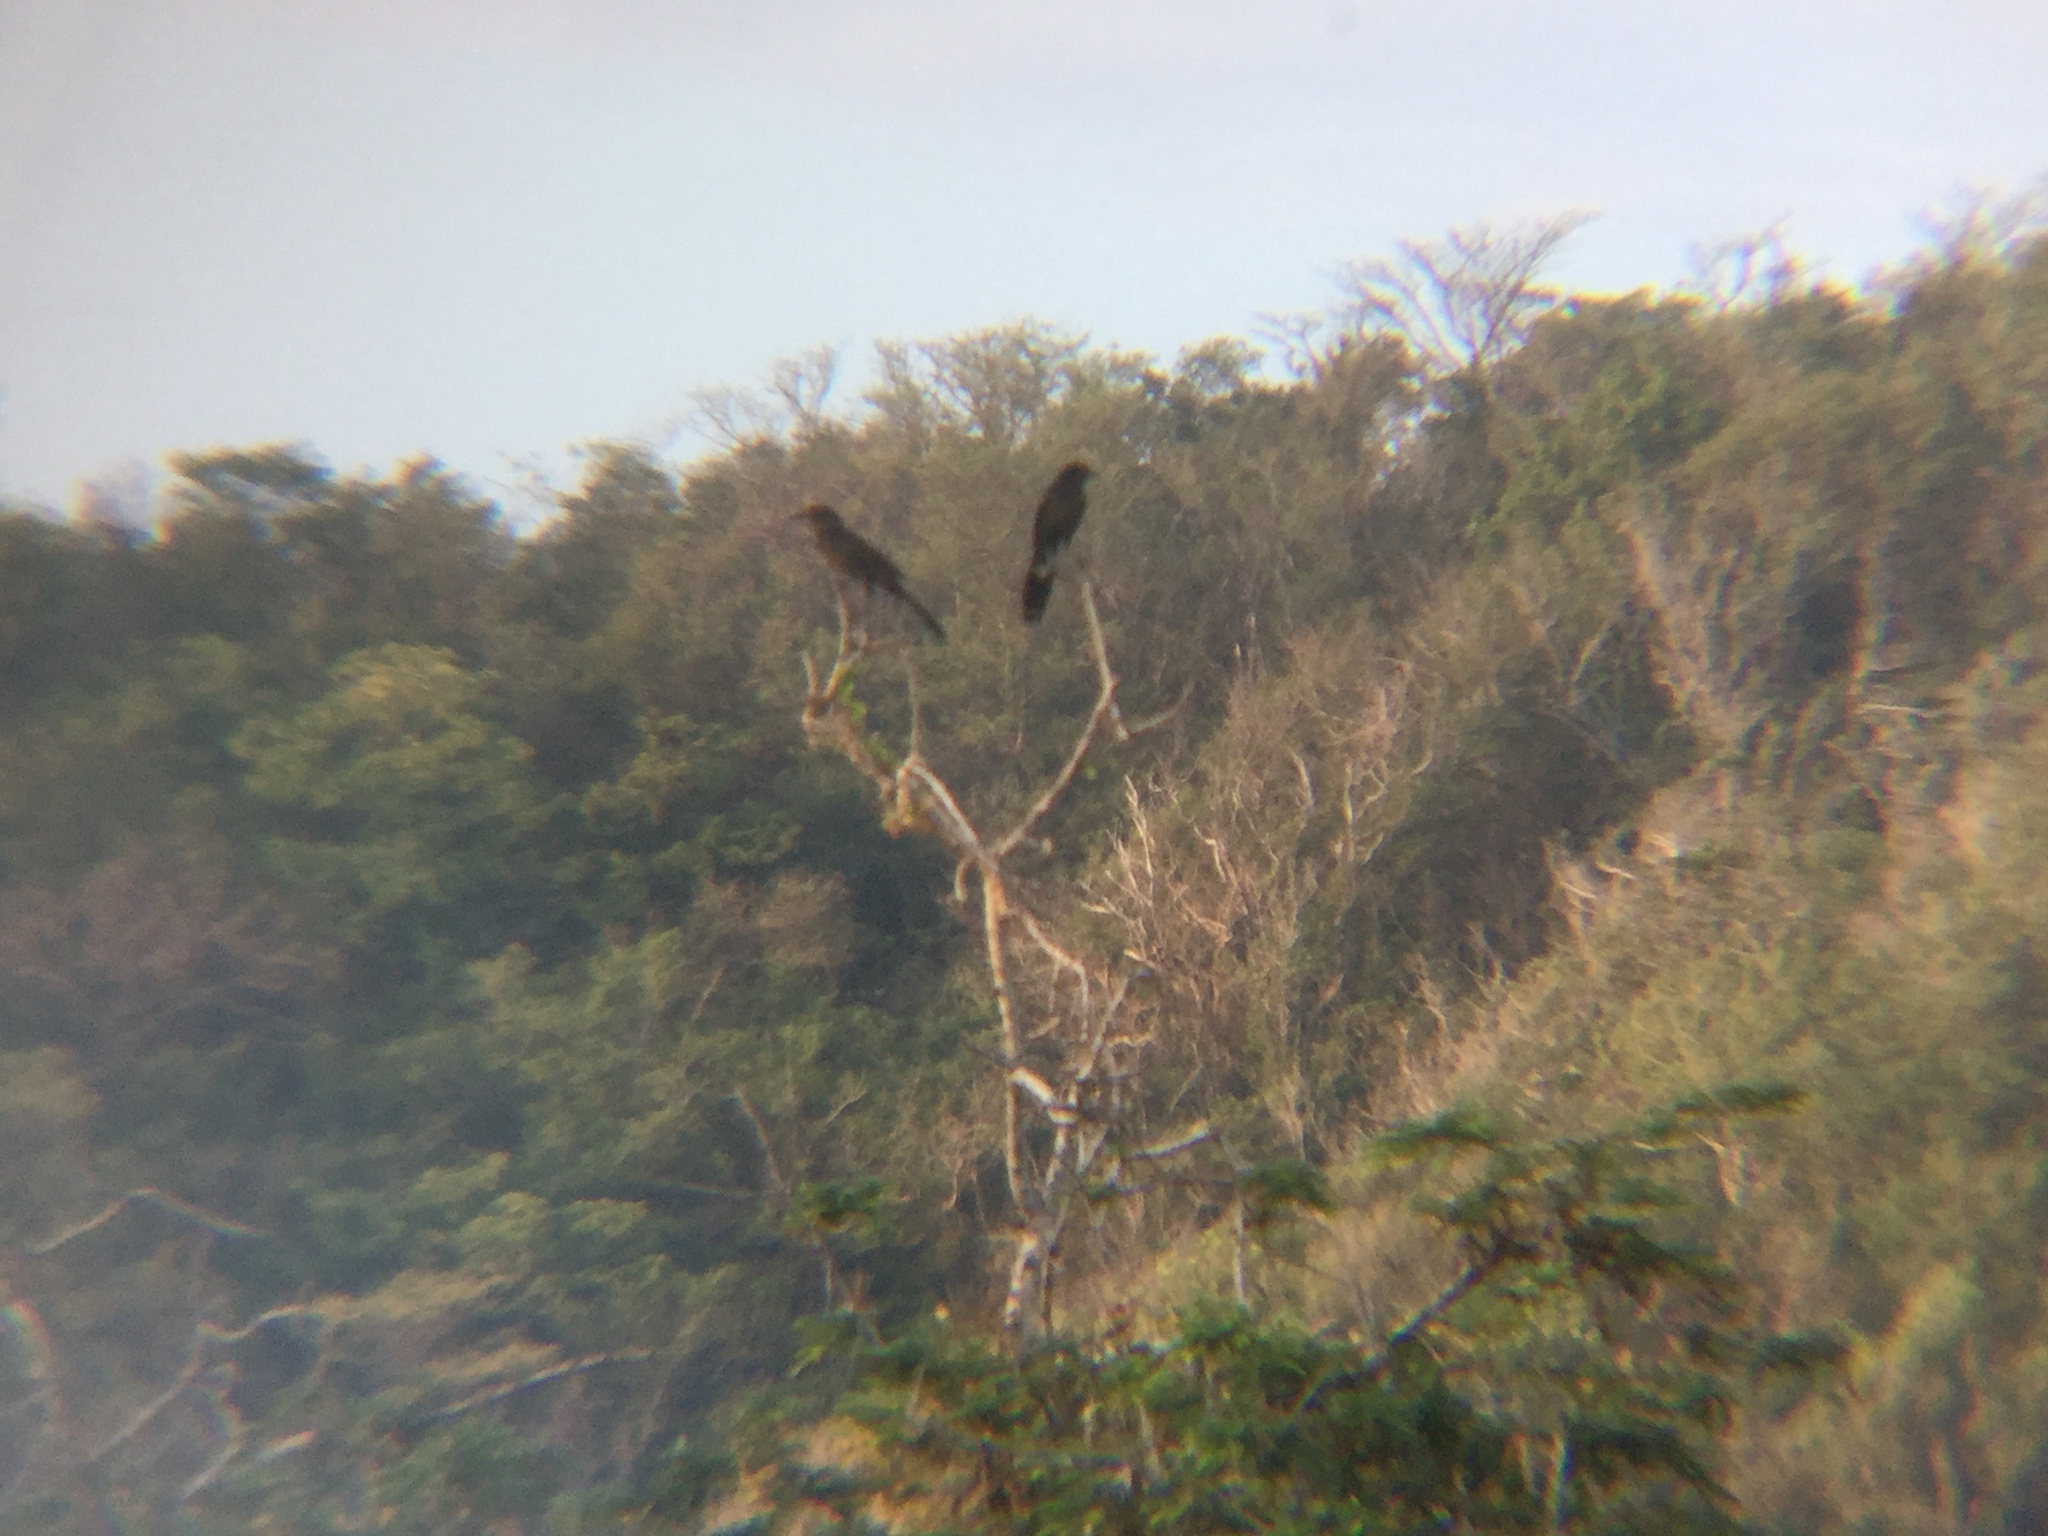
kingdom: Animalia
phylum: Chordata
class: Aves
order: Passeriformes
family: Icteridae
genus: Quiscalus
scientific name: Quiscalus mexicanus
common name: Great-tailed grackle
